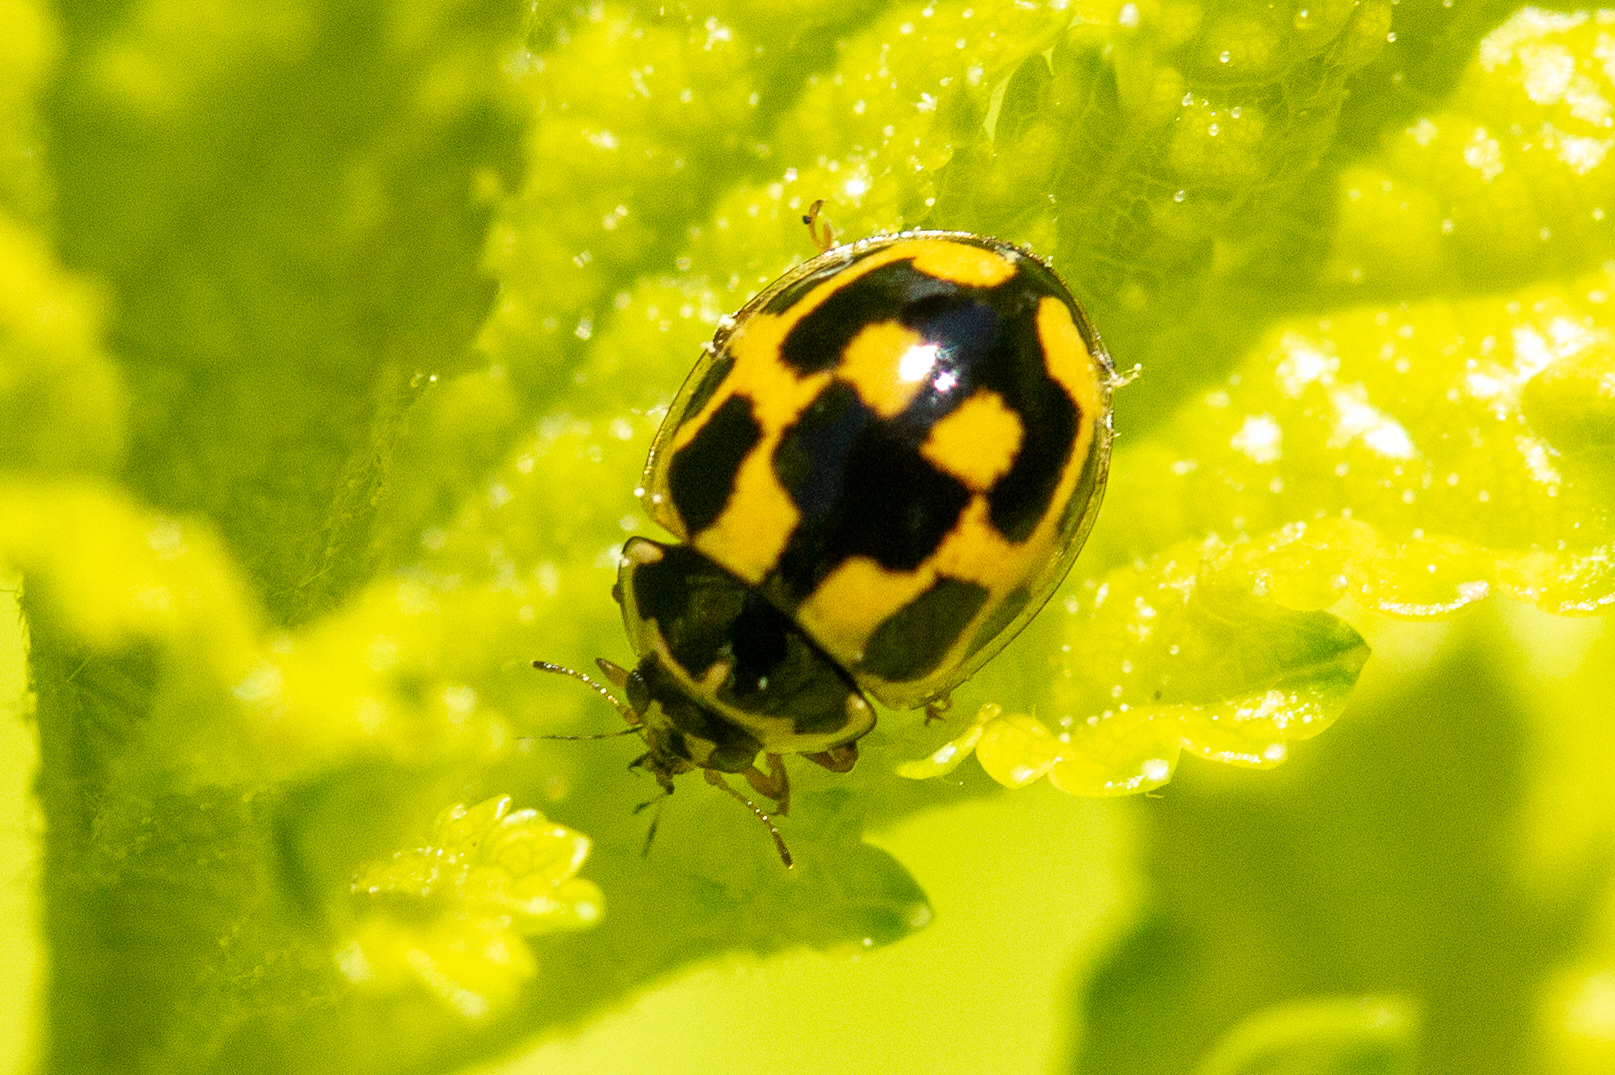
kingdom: Animalia
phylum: Arthropoda
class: Insecta
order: Coleoptera
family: Coccinellidae
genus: Propylaea
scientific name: Propylaea quatuordecimpunctata
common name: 14-spotted ladybird beetle
